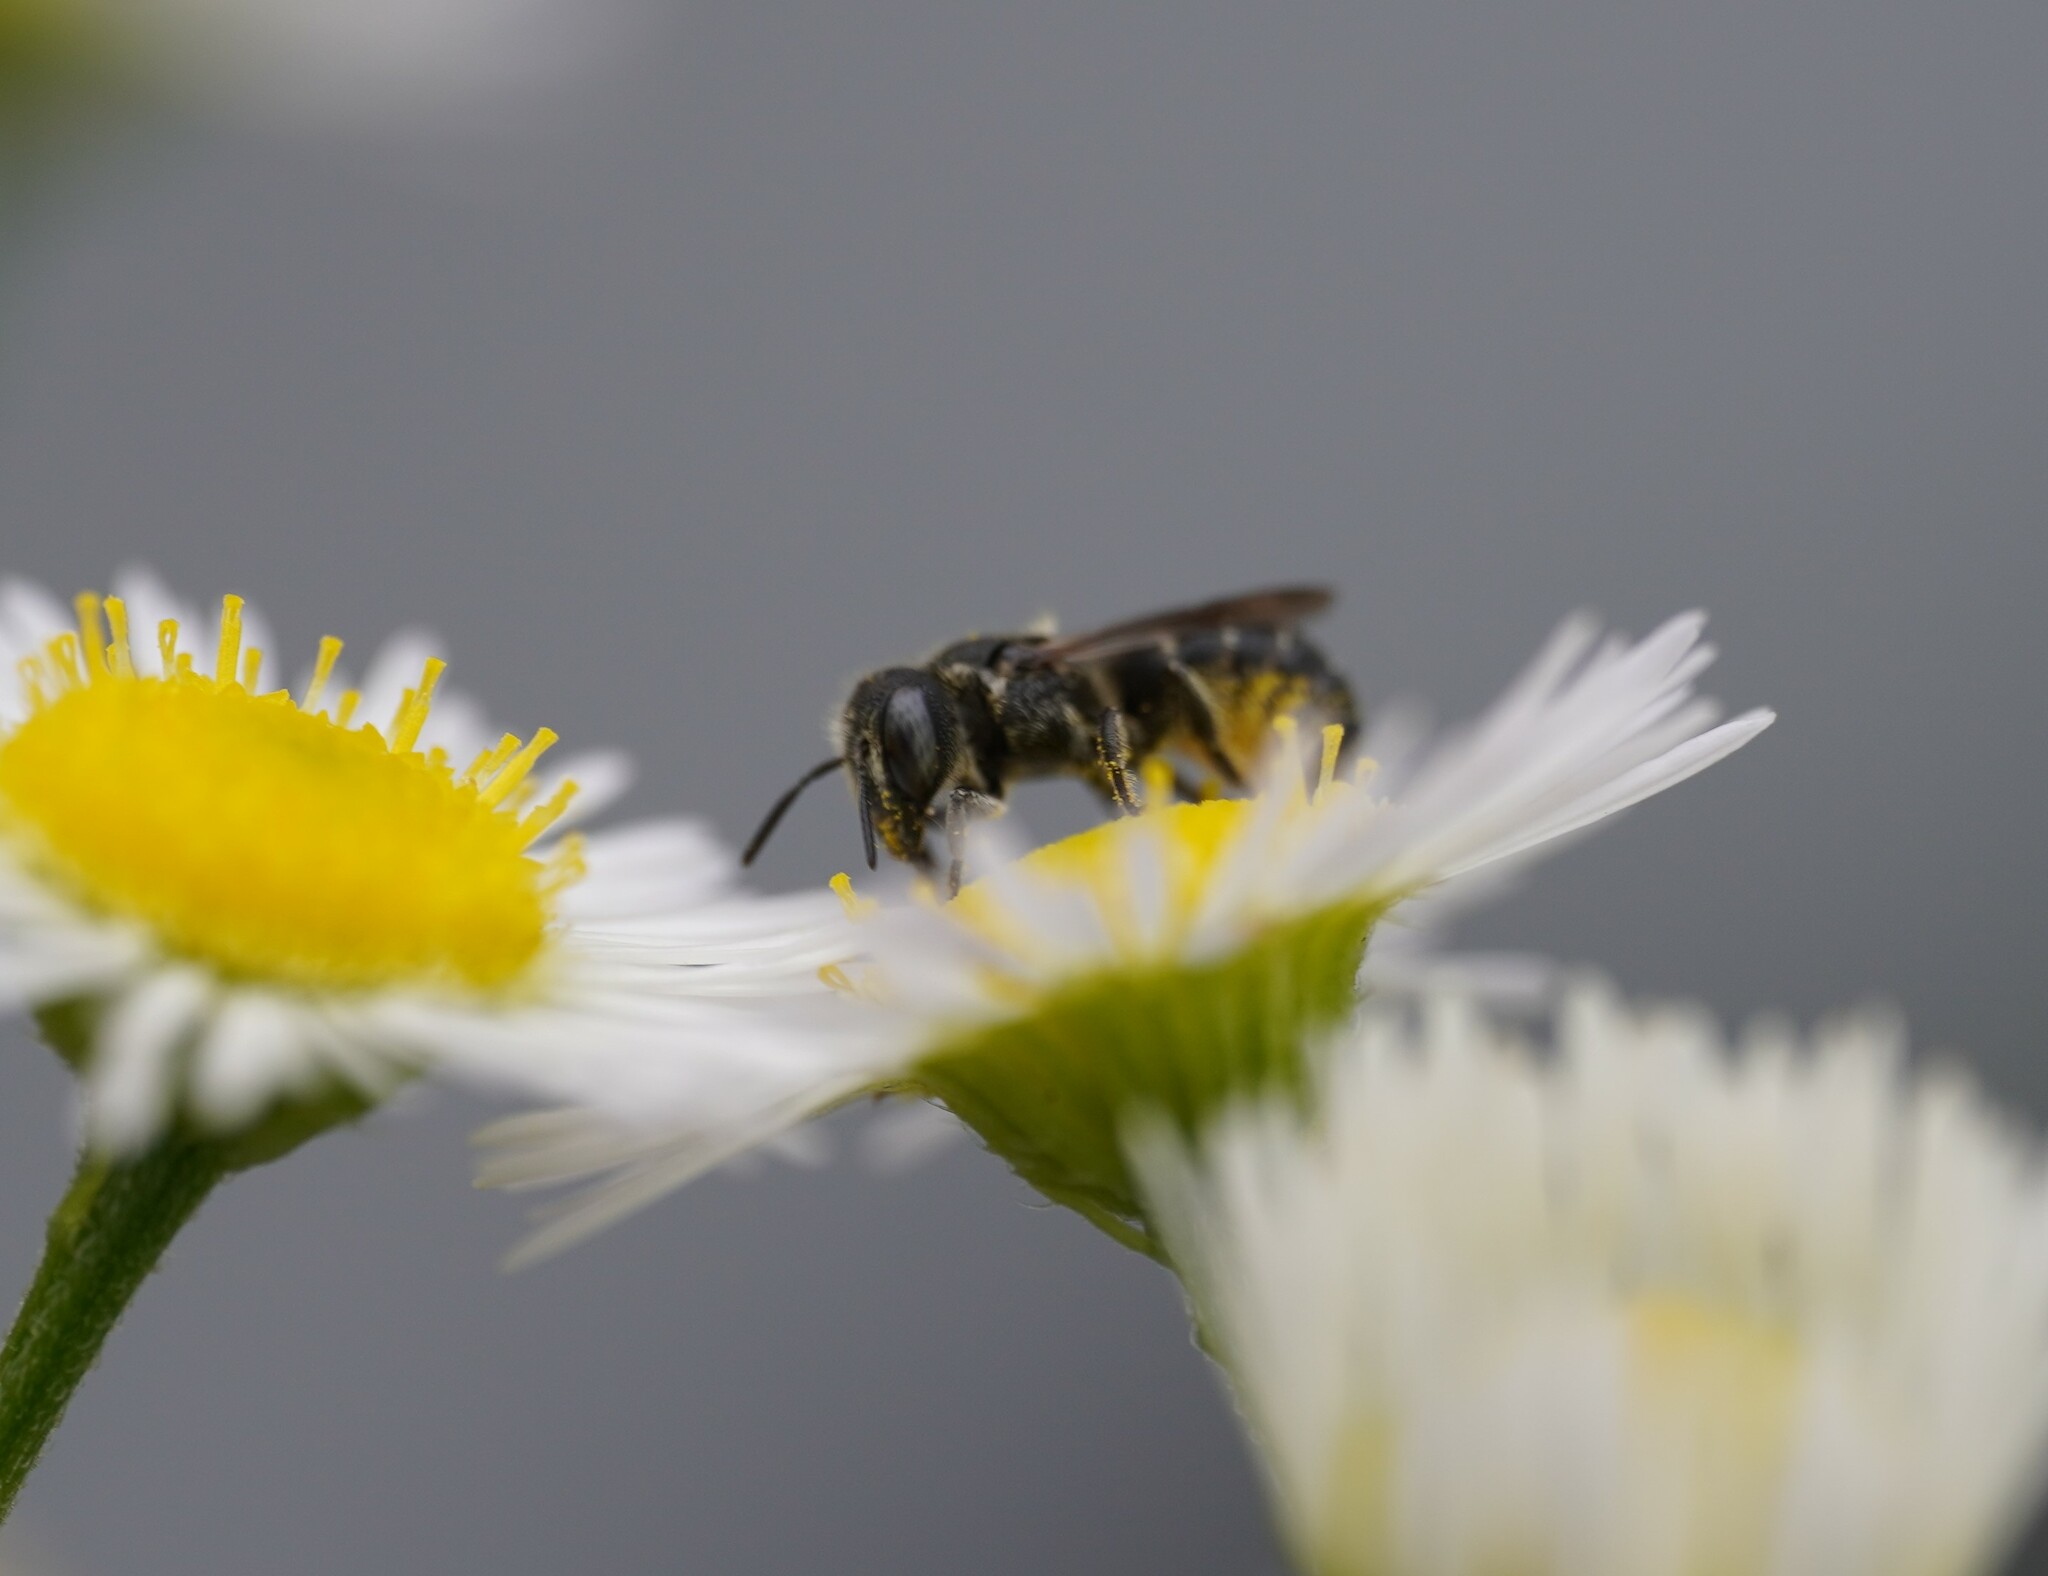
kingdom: Animalia
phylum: Arthropoda
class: Insecta
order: Hymenoptera
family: Megachilidae
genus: Heriades
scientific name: Heriades rubicola
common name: Bramble carpenter bee
